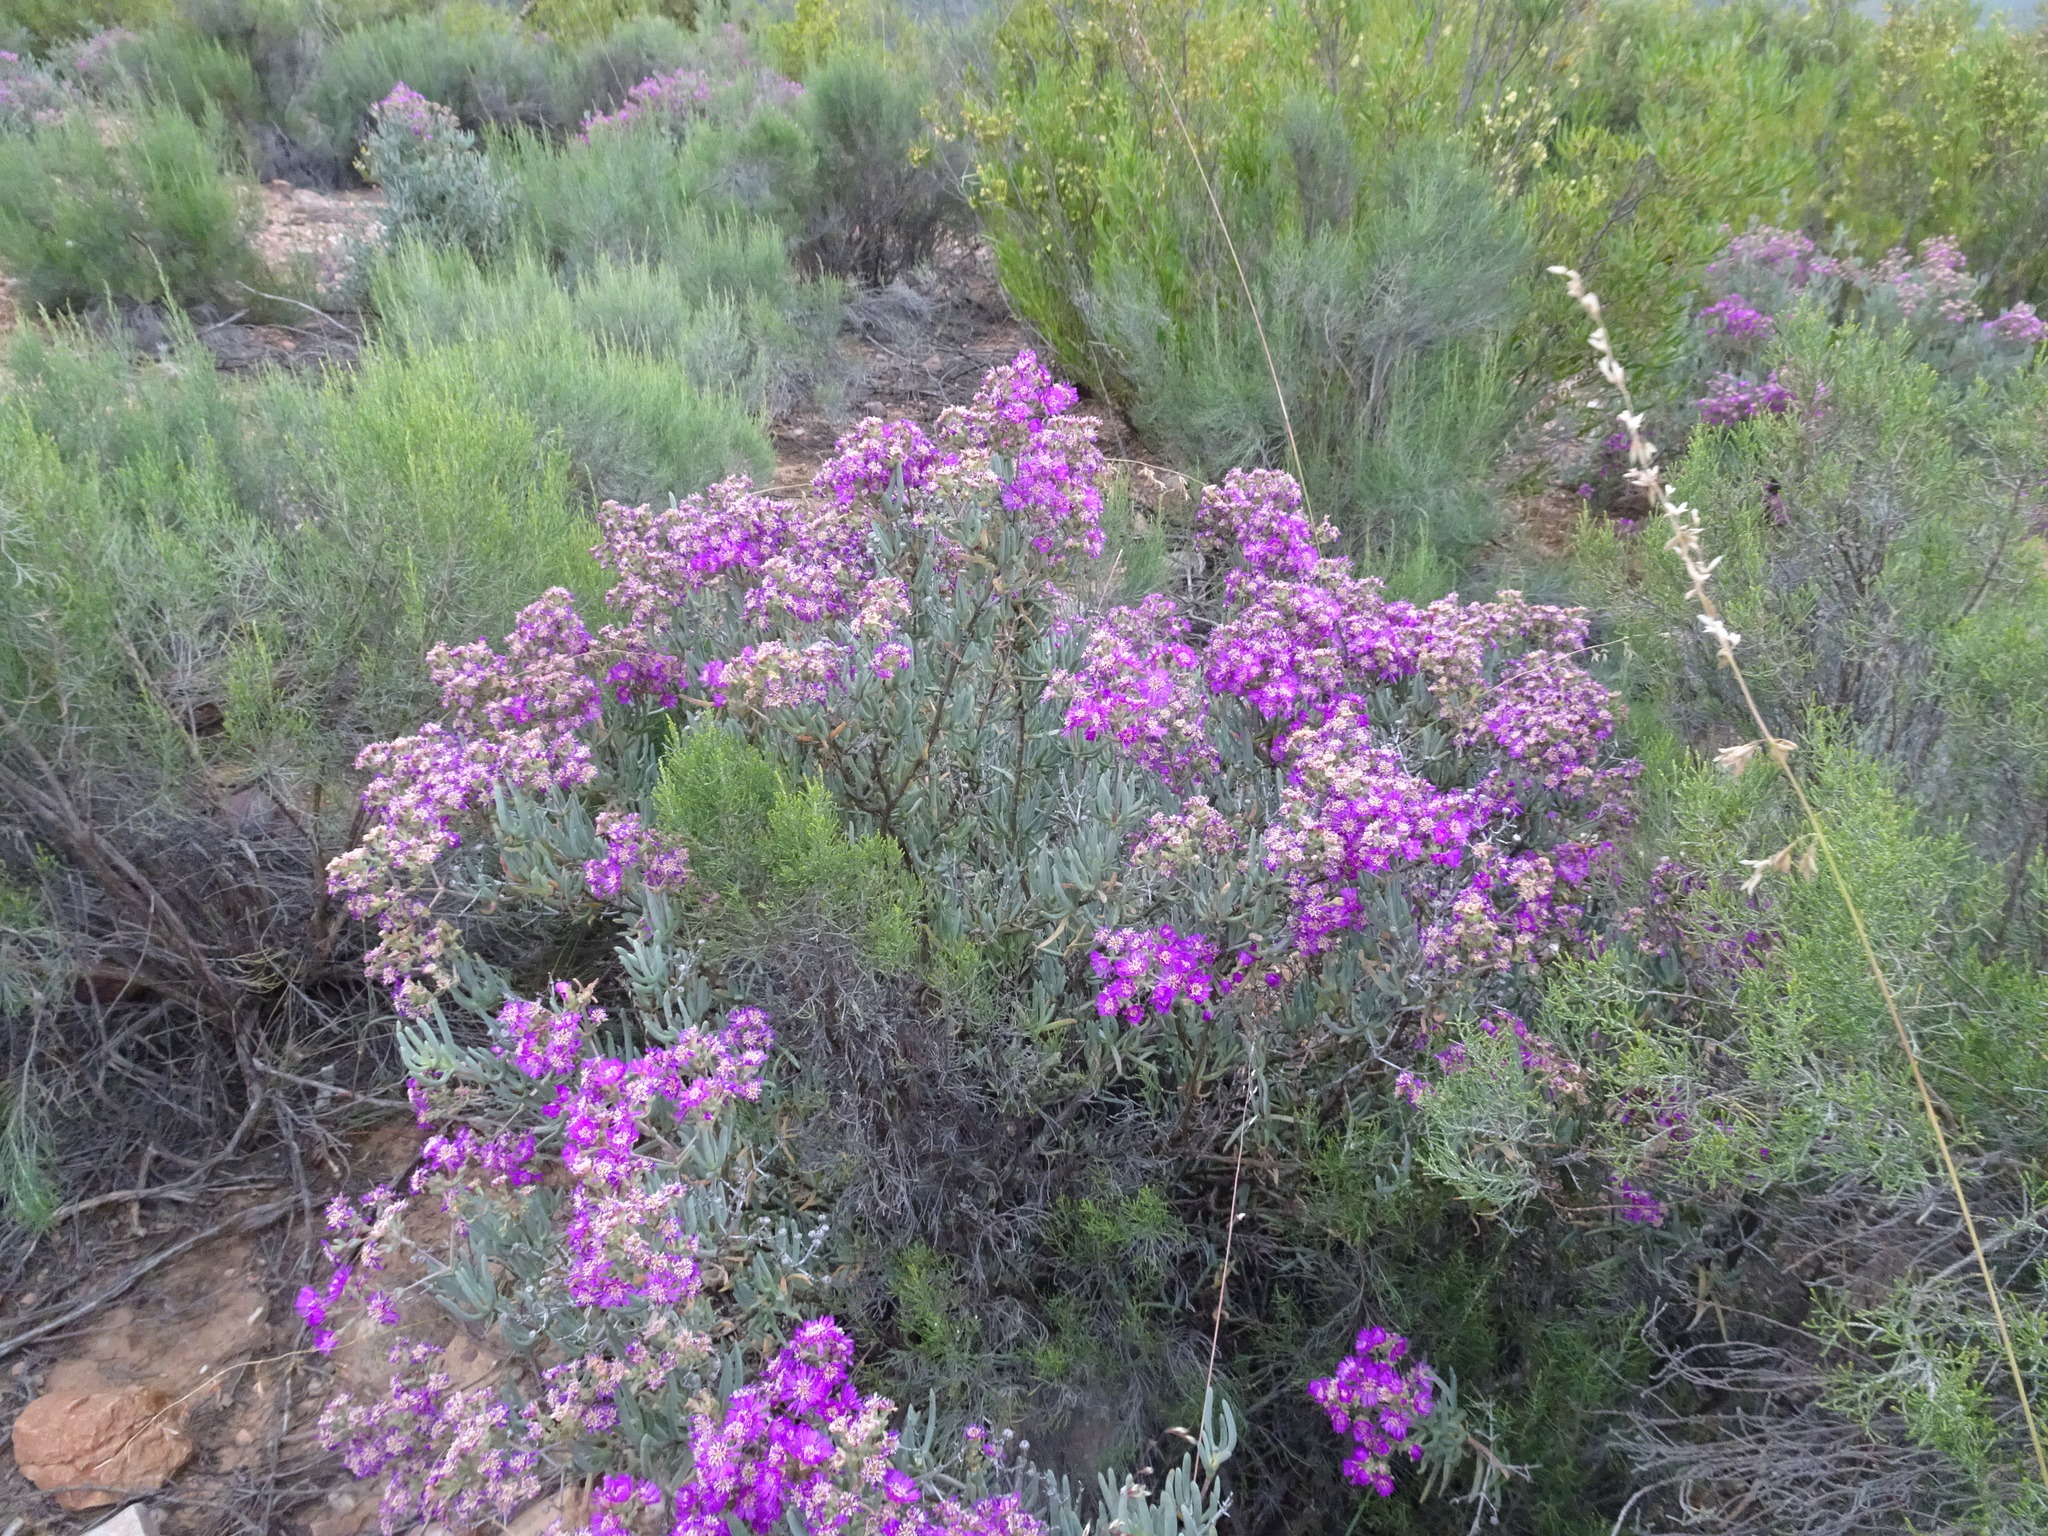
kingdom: Plantae
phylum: Tracheophyta
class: Magnoliopsida
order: Caryophyllales
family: Aizoaceae
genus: Ruschia
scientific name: Ruschia pungens
